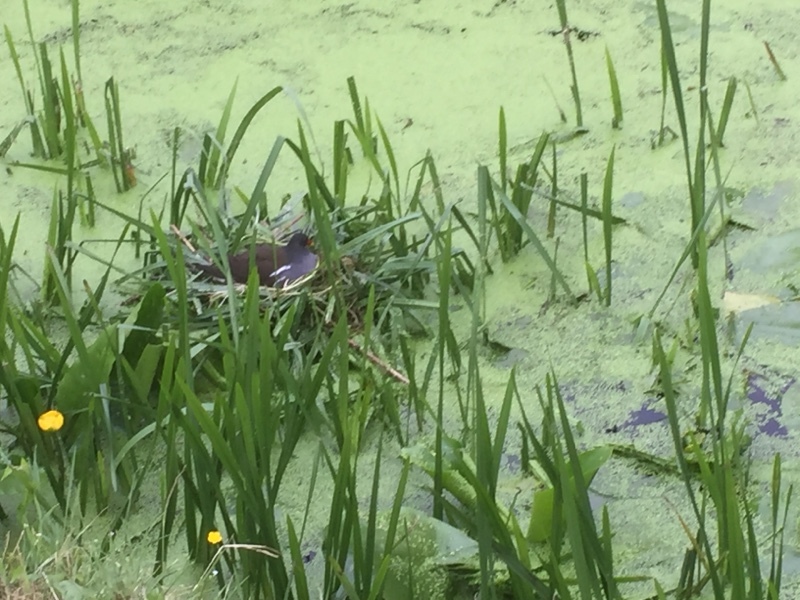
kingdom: Animalia
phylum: Chordata
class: Aves
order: Gruiformes
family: Rallidae
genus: Gallinula
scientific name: Gallinula chloropus
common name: Common moorhen
